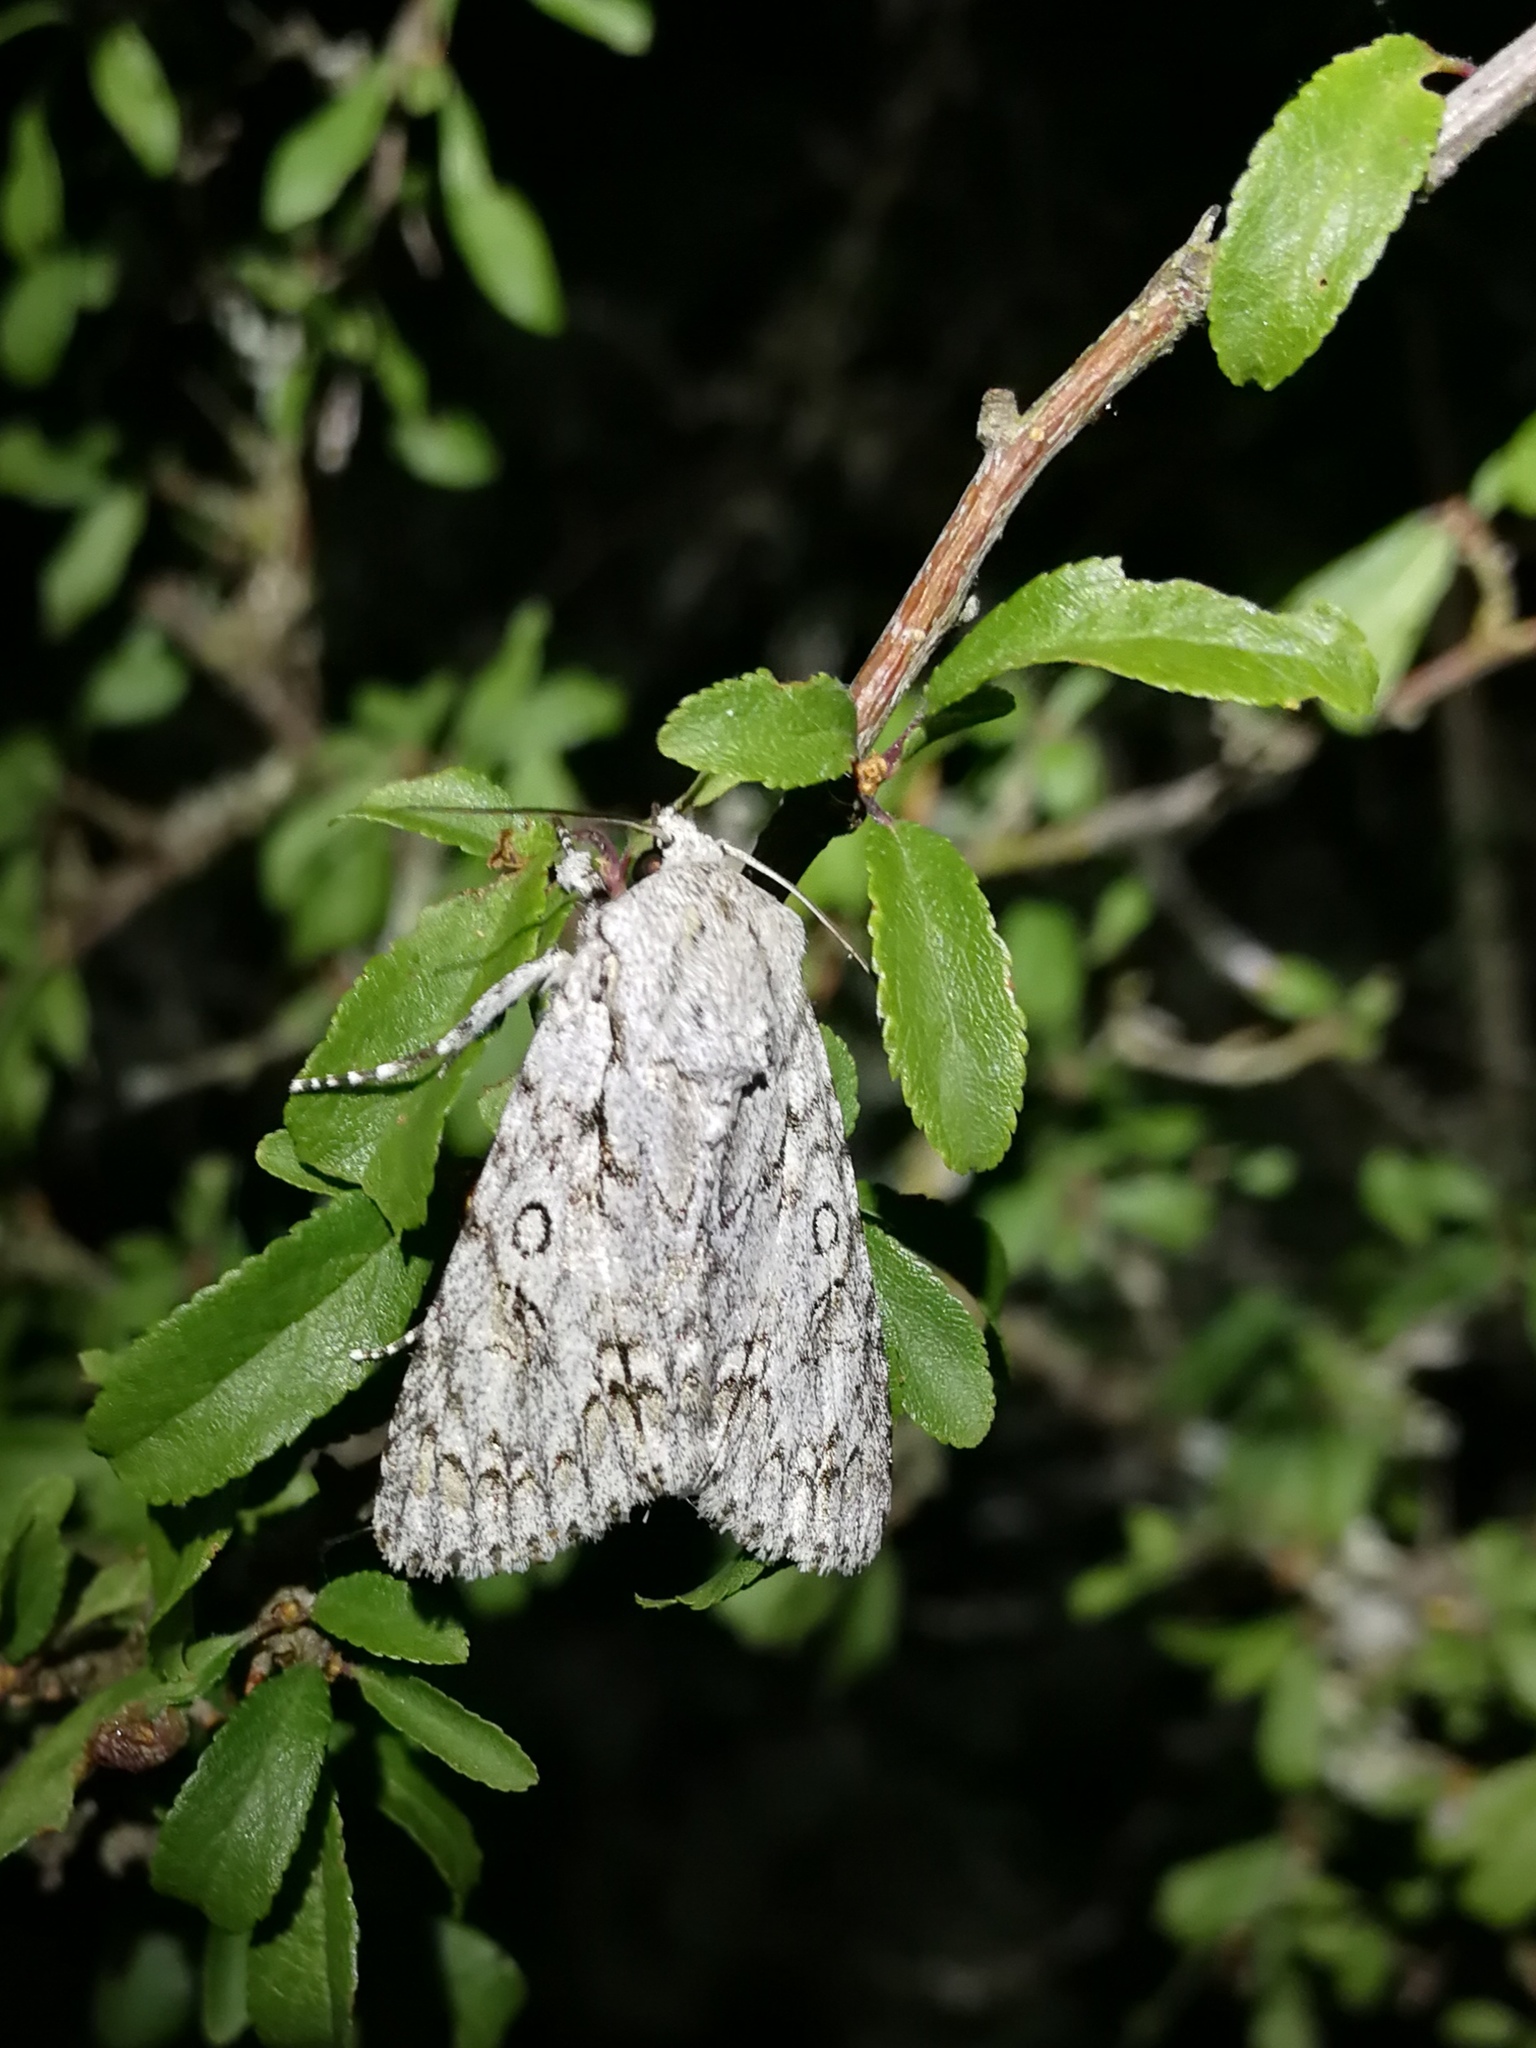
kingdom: Animalia
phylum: Arthropoda
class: Insecta
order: Lepidoptera
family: Noctuidae
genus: Acronicta
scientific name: Acronicta aceris
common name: Sycamore
